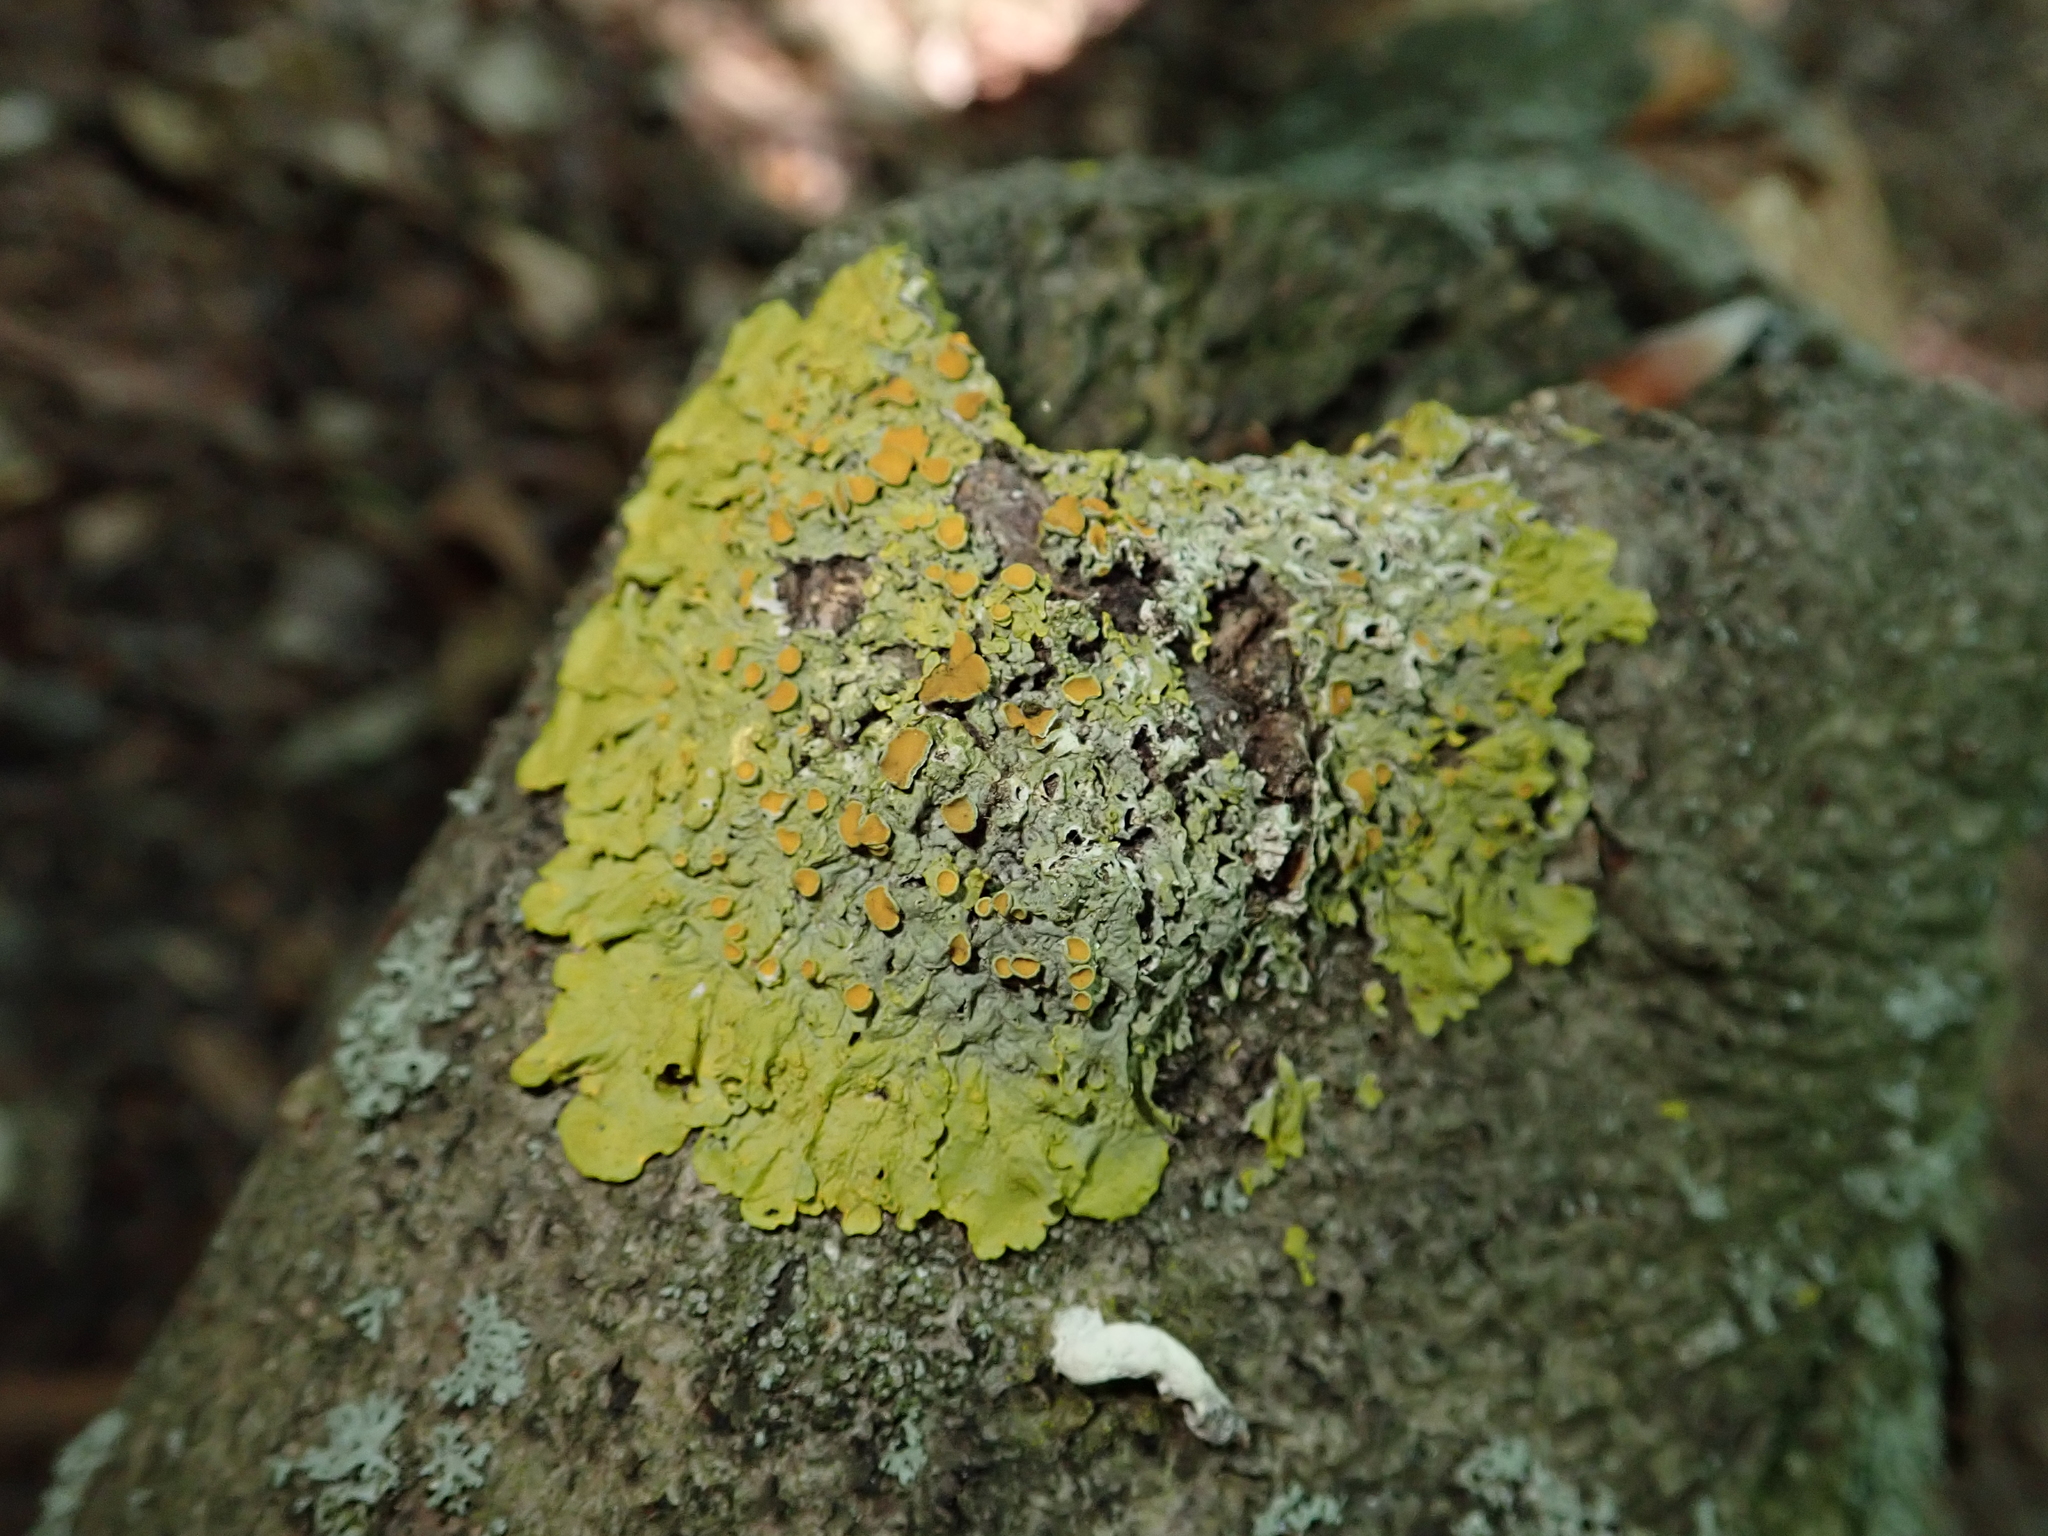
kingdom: Fungi
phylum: Ascomycota
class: Lecanoromycetes
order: Teloschistales
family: Teloschistaceae
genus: Xanthoria
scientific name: Xanthoria parietina
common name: Common orange lichen
